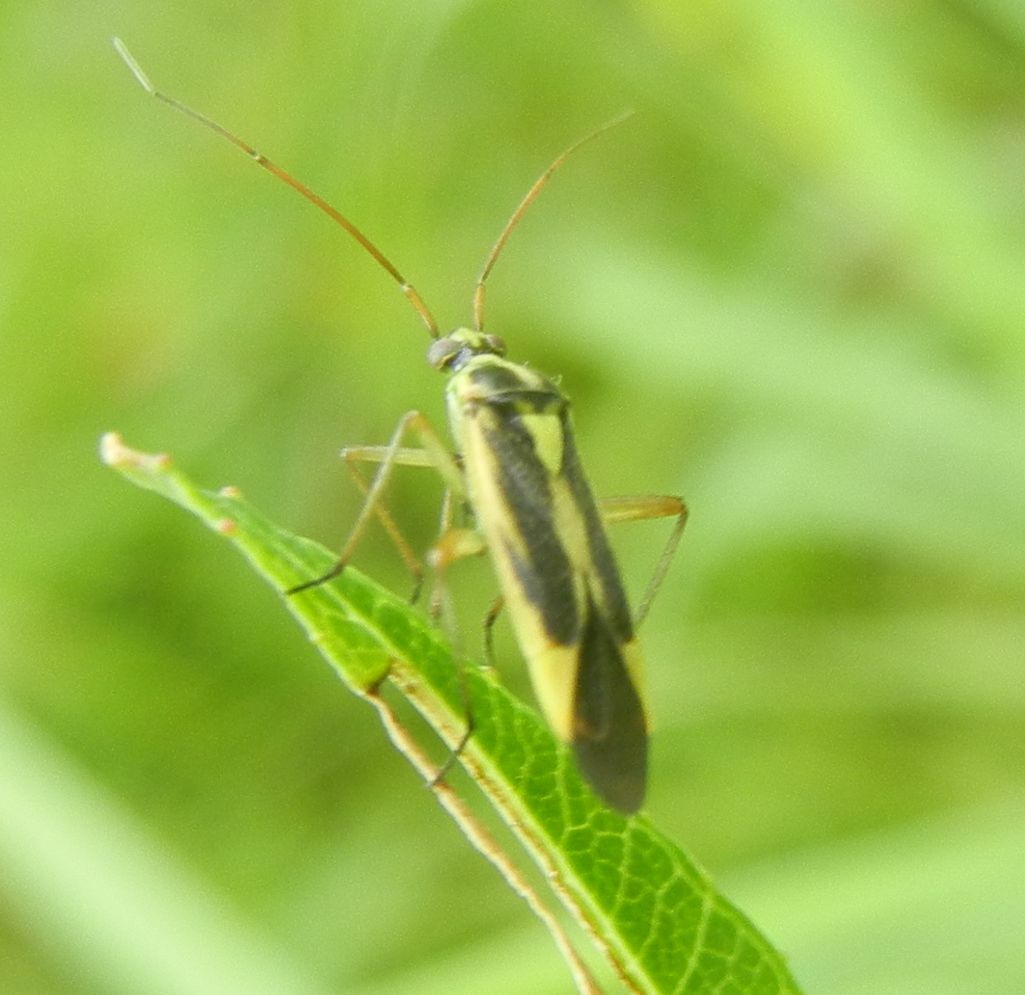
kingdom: Animalia
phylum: Arthropoda
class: Insecta
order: Hemiptera
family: Miridae
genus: Stenotus
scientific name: Stenotus binotatus
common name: Plant bug
